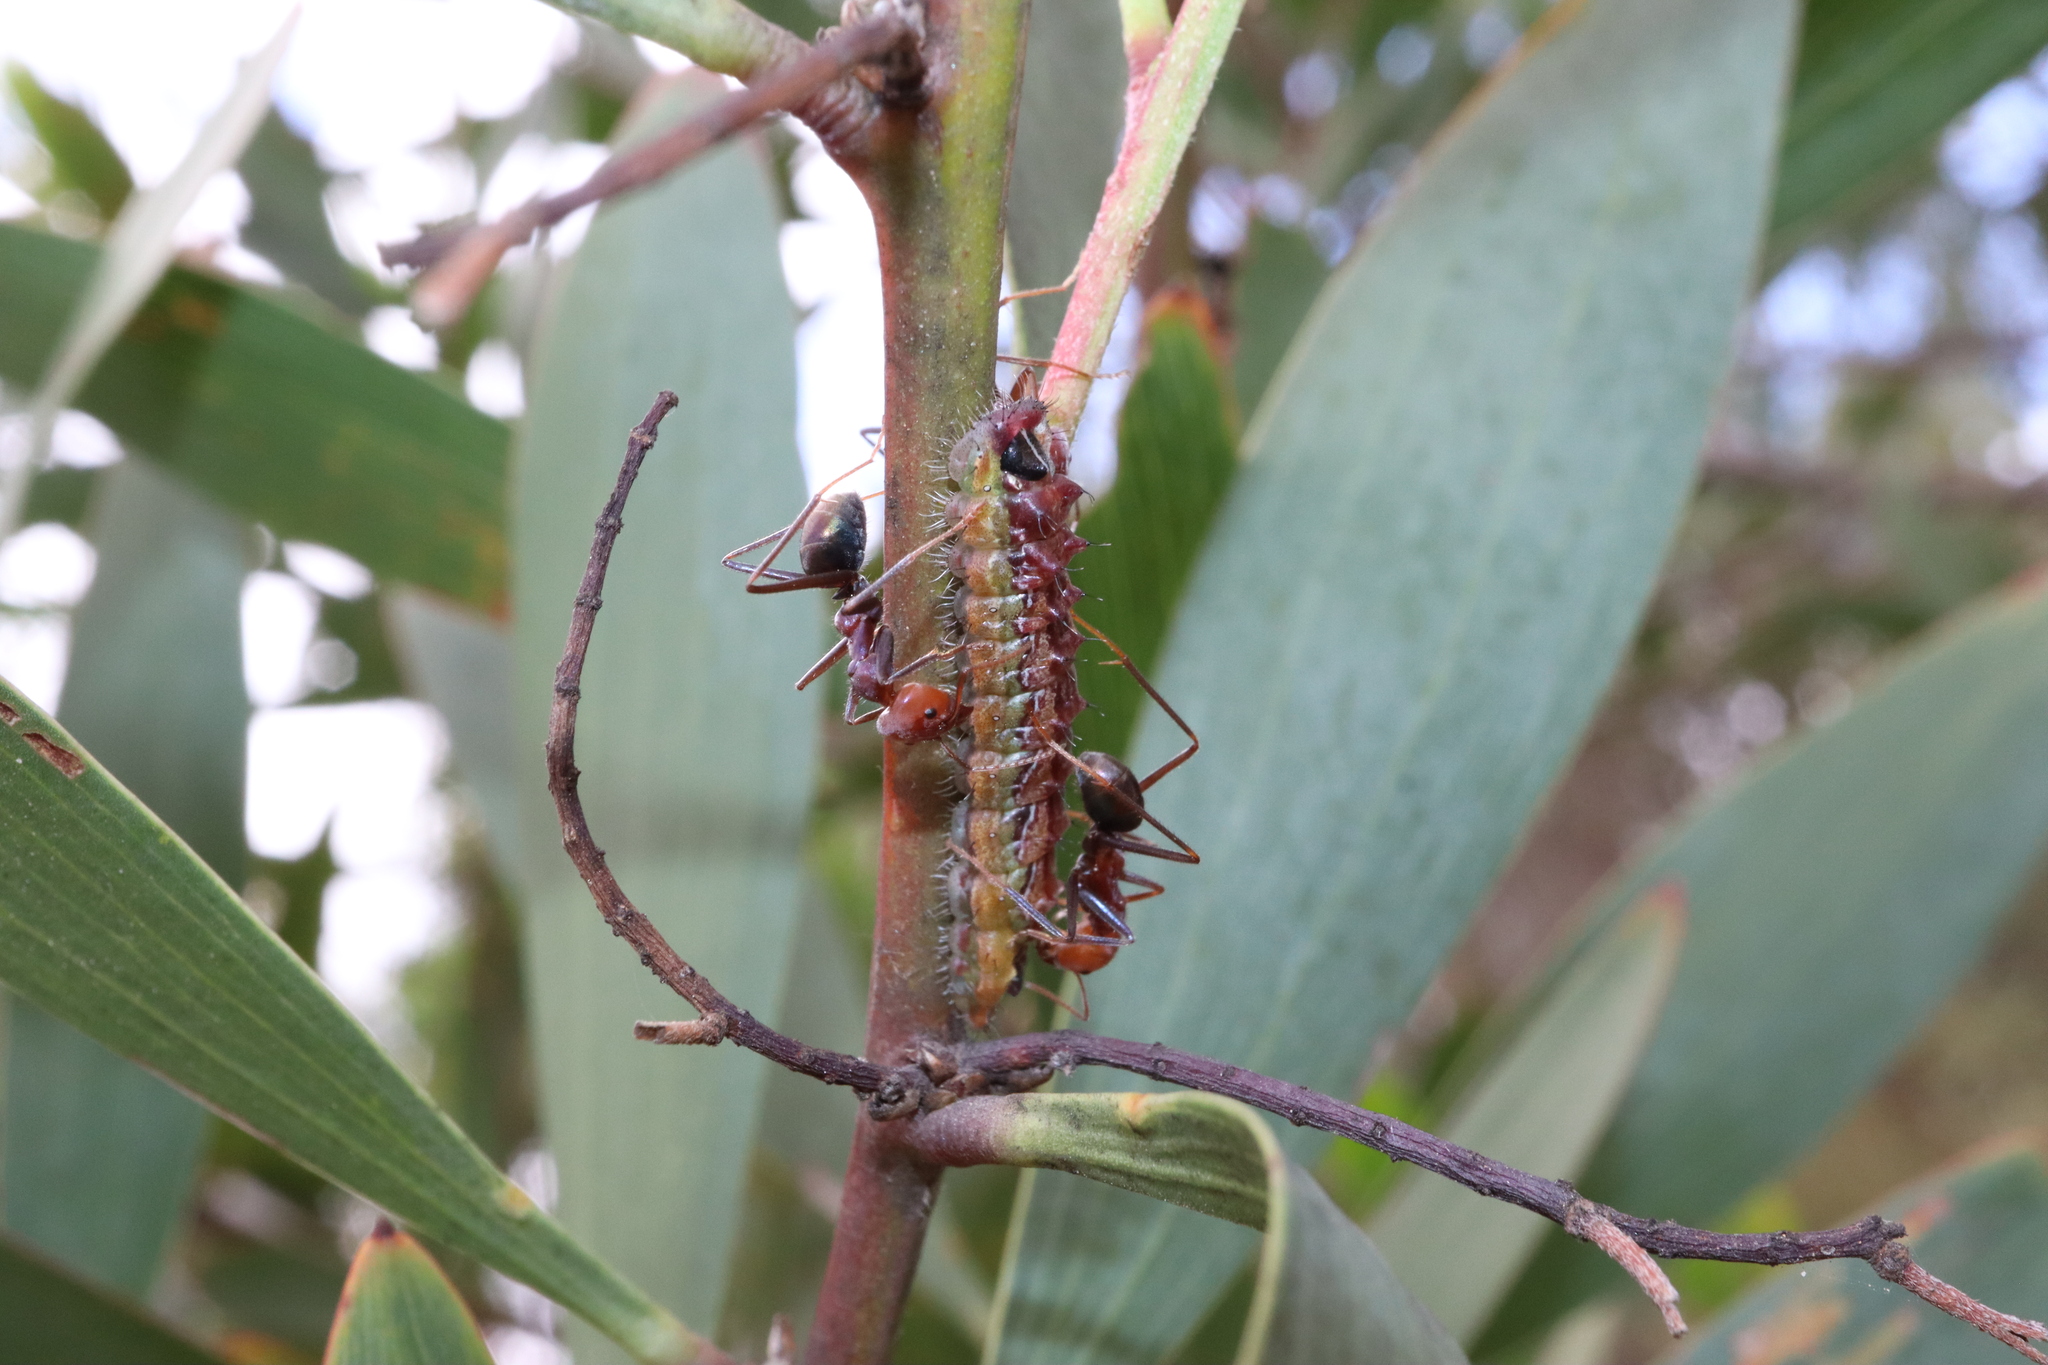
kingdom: Animalia
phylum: Arthropoda
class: Insecta
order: Hymenoptera
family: Formicidae
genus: Iridomyrmex
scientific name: Iridomyrmex purpureus
